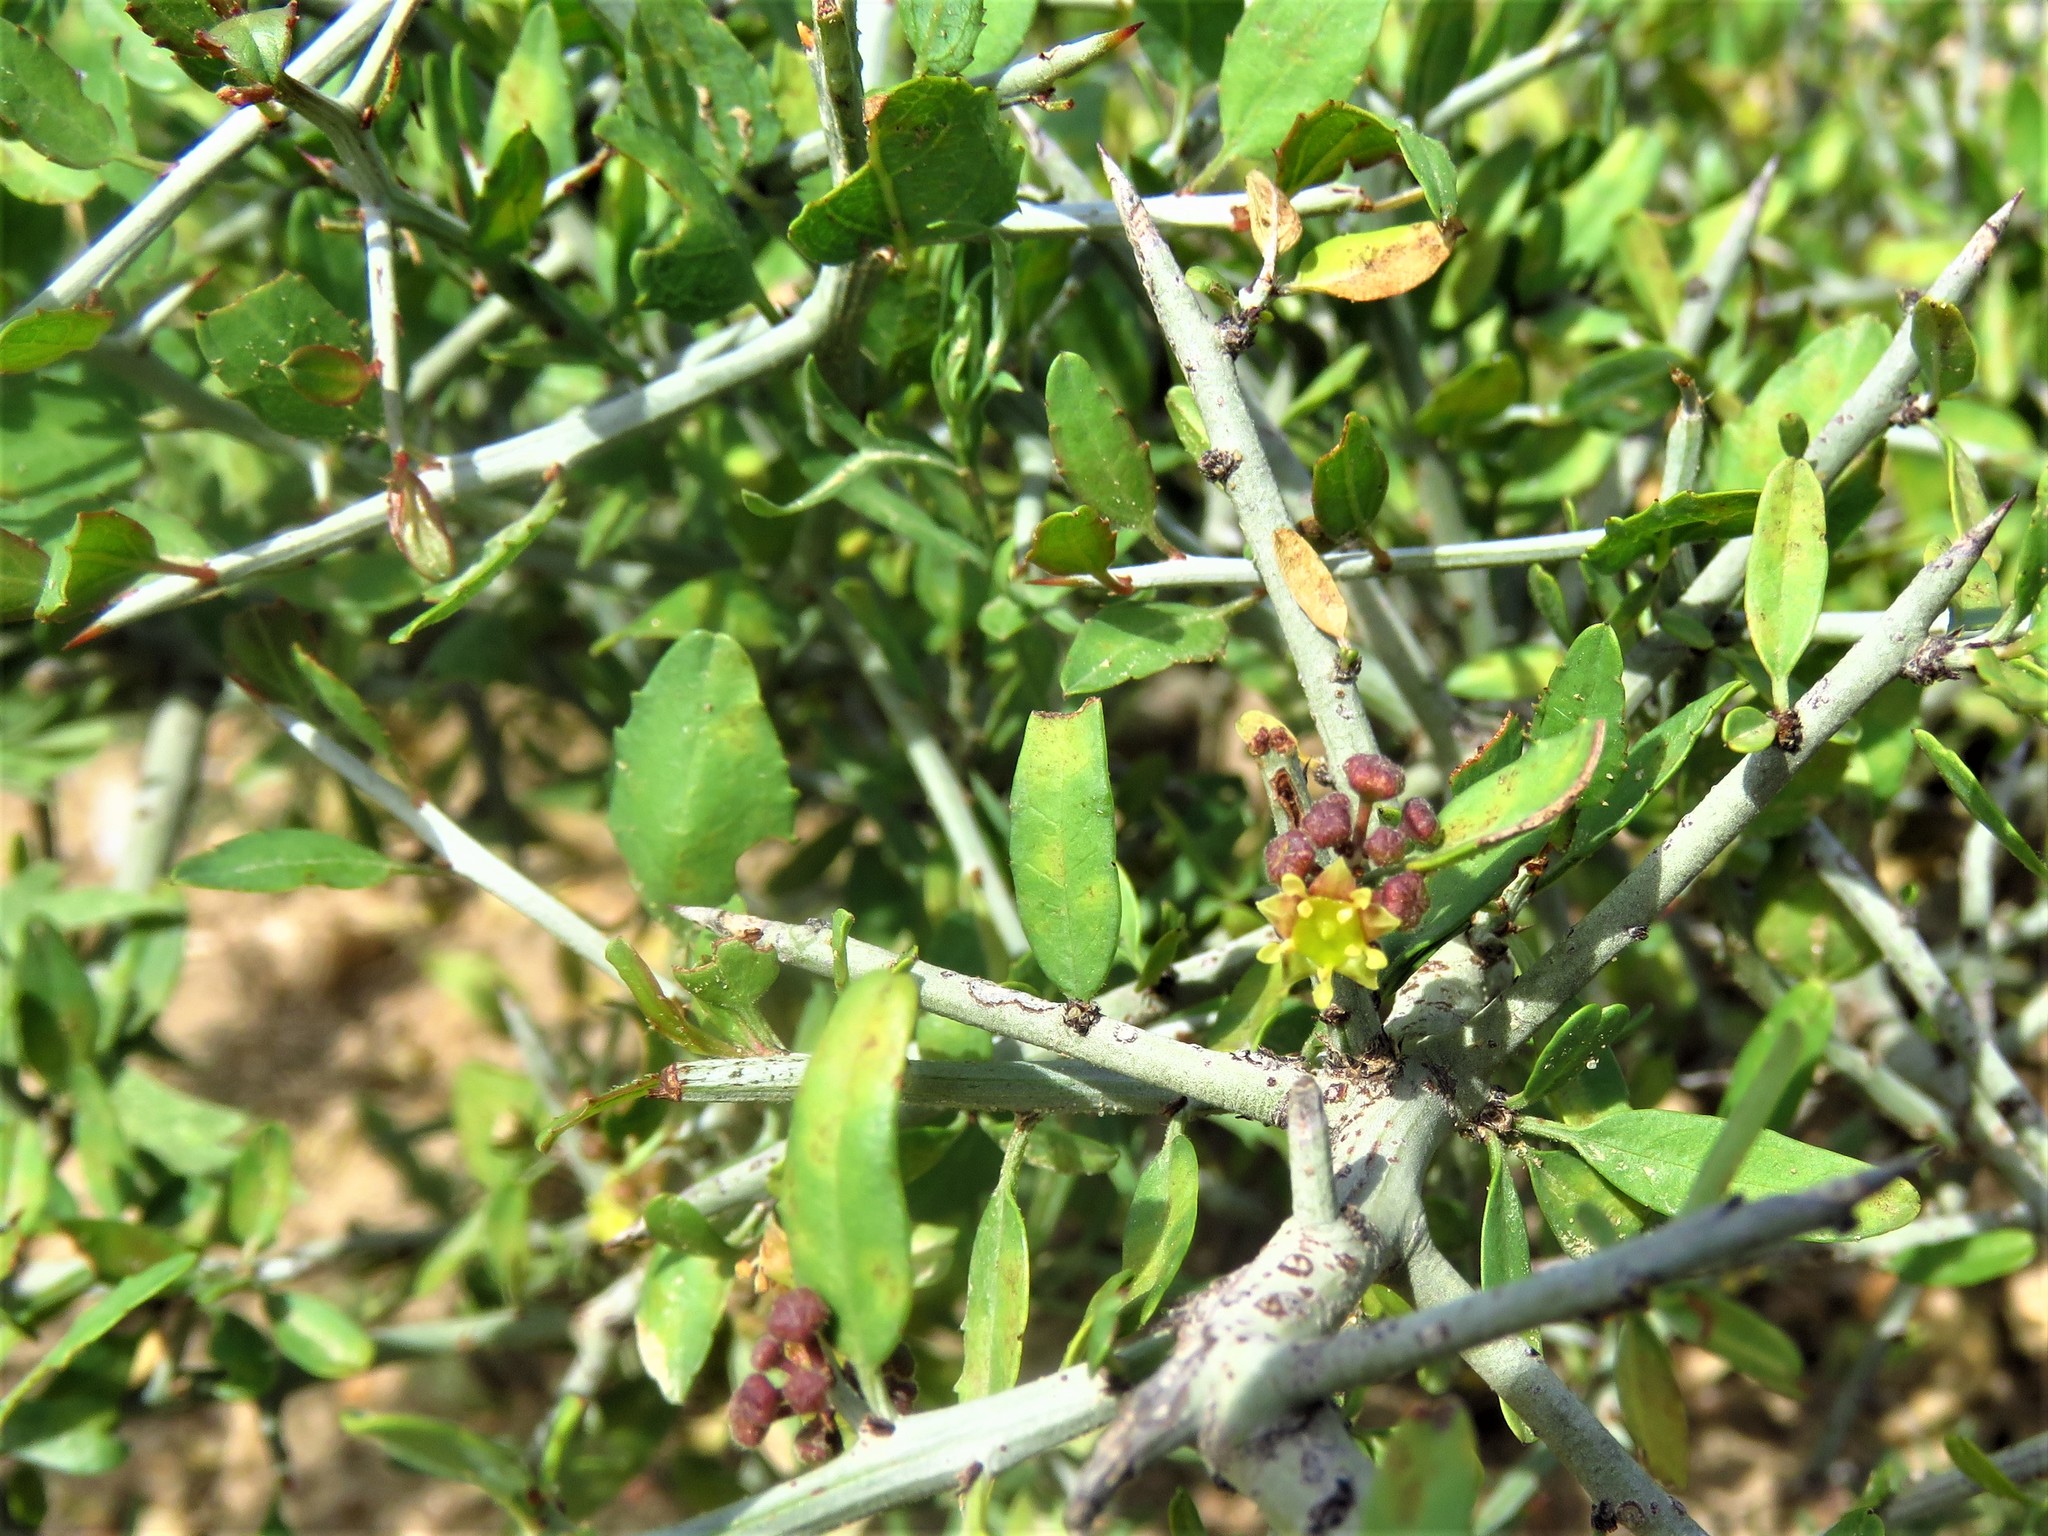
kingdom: Plantae
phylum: Tracheophyta
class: Magnoliopsida
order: Rosales
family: Rhamnaceae
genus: Sarcomphalus
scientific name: Sarcomphalus obtusifolius
